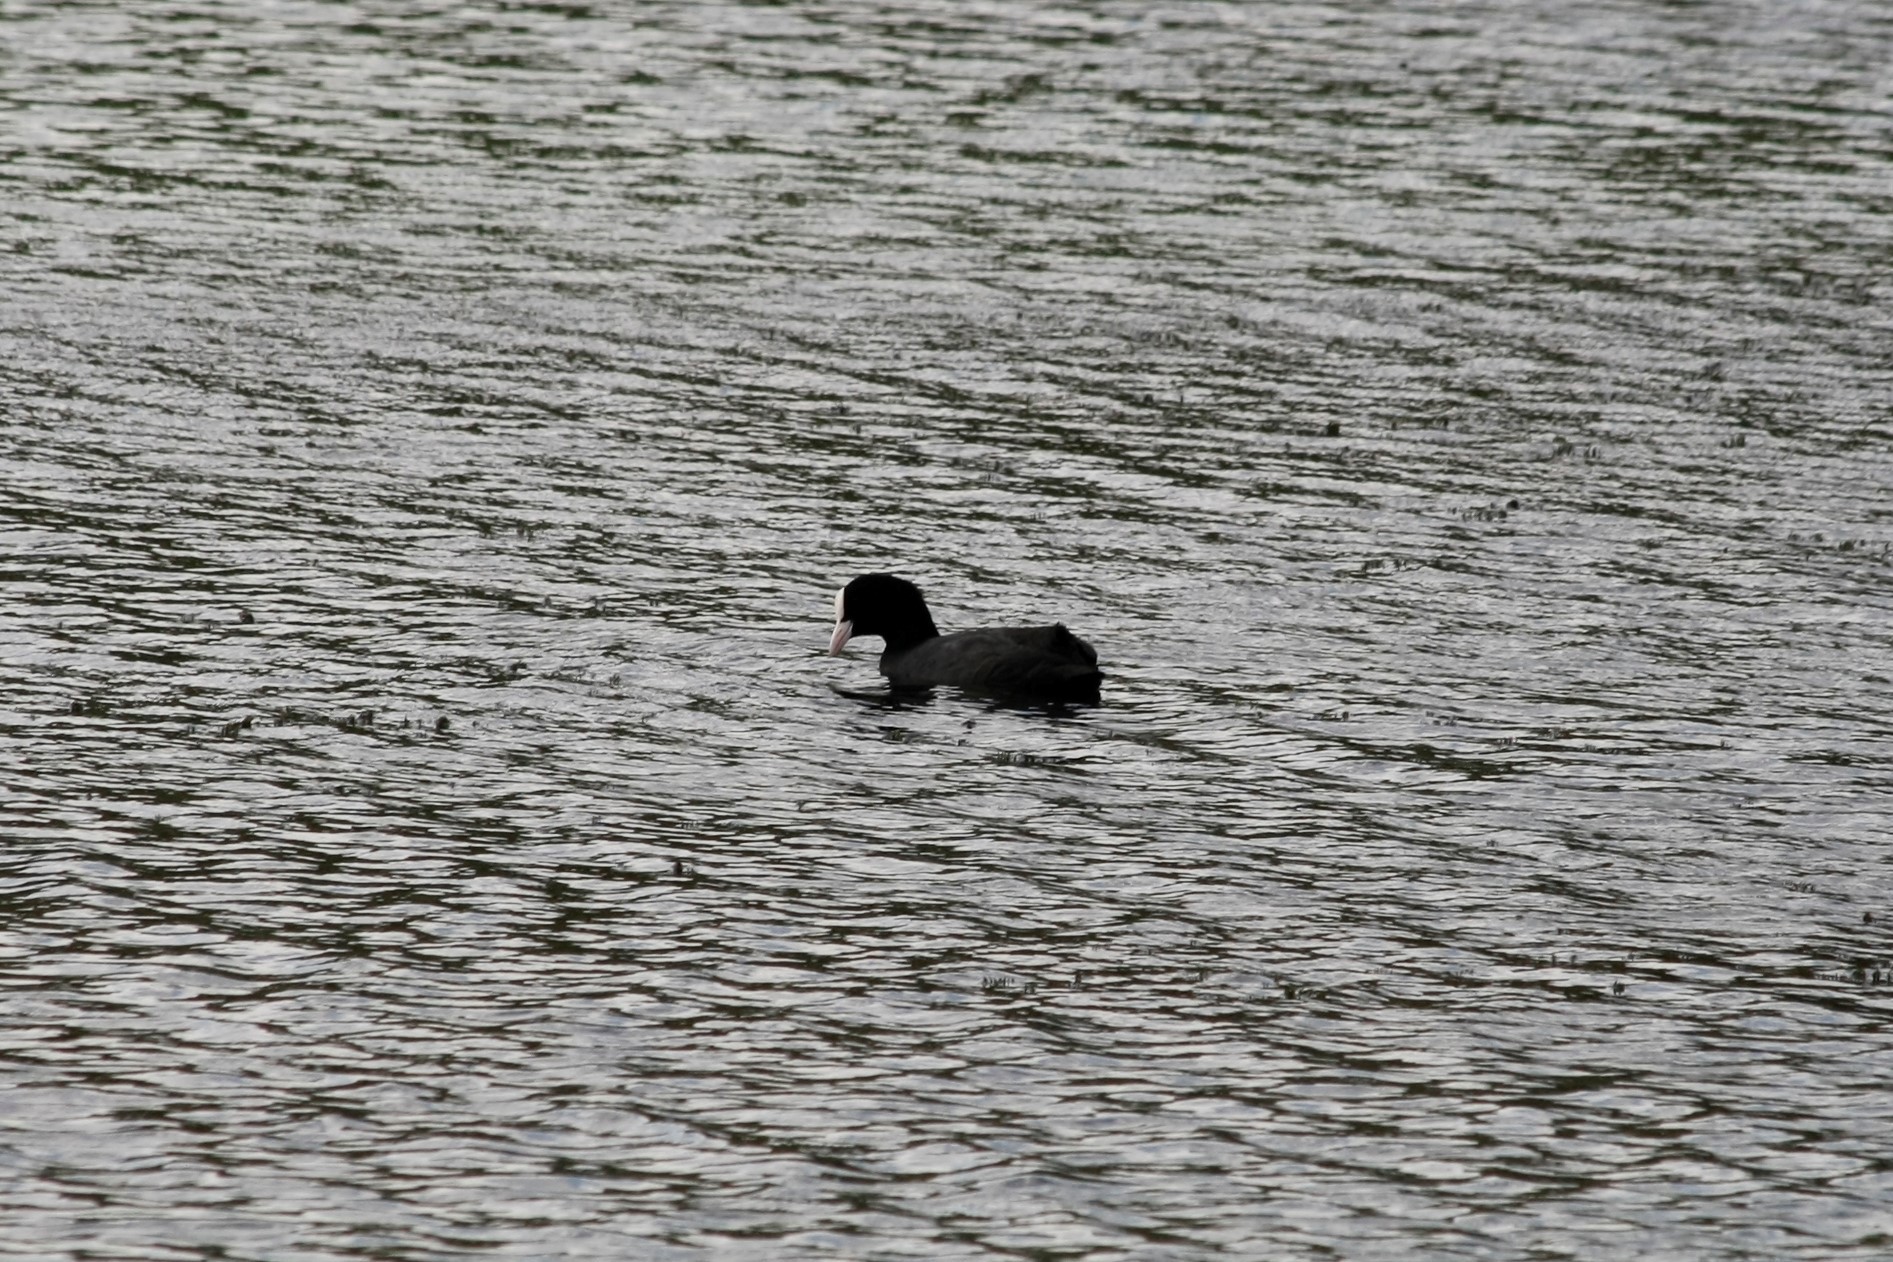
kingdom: Animalia
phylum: Chordata
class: Aves
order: Gruiformes
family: Rallidae
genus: Fulica
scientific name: Fulica atra
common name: Eurasian coot
